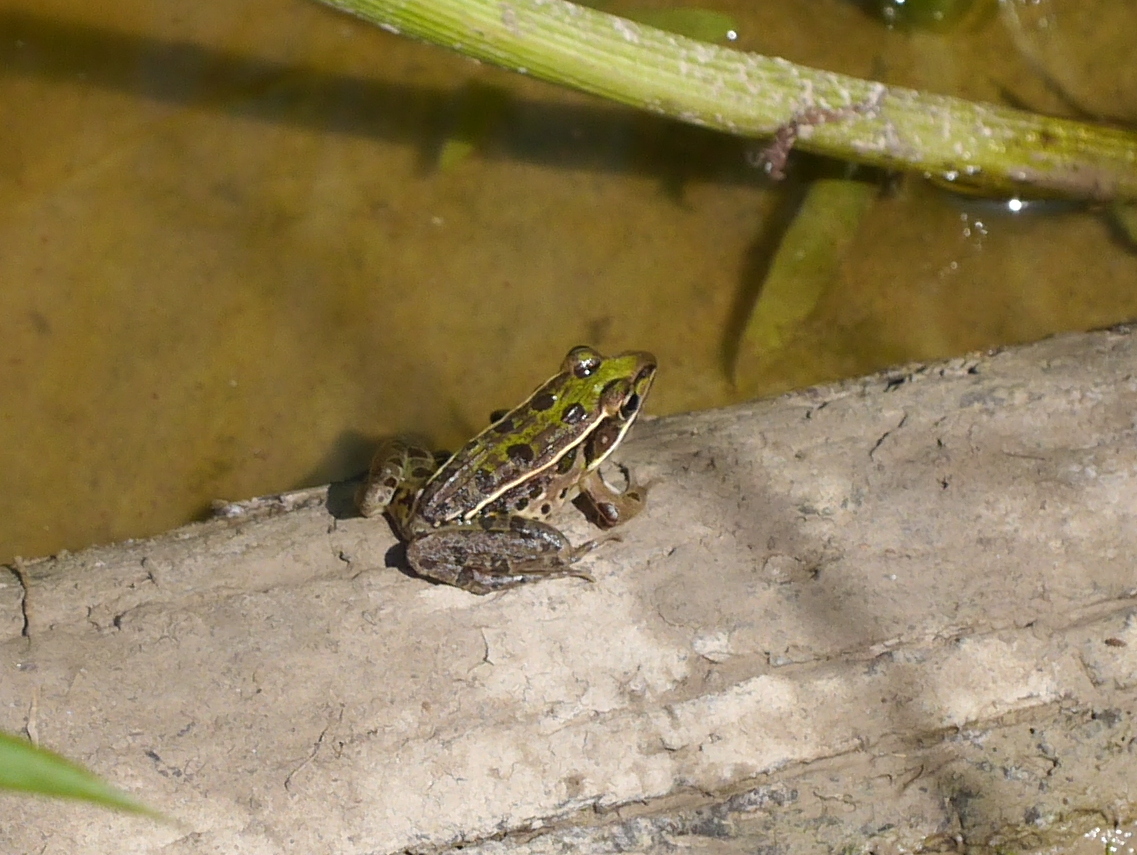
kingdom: Animalia
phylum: Chordata
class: Amphibia
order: Anura
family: Ranidae
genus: Lithobates
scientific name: Lithobates sphenocephalus
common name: Southern leopard frog
